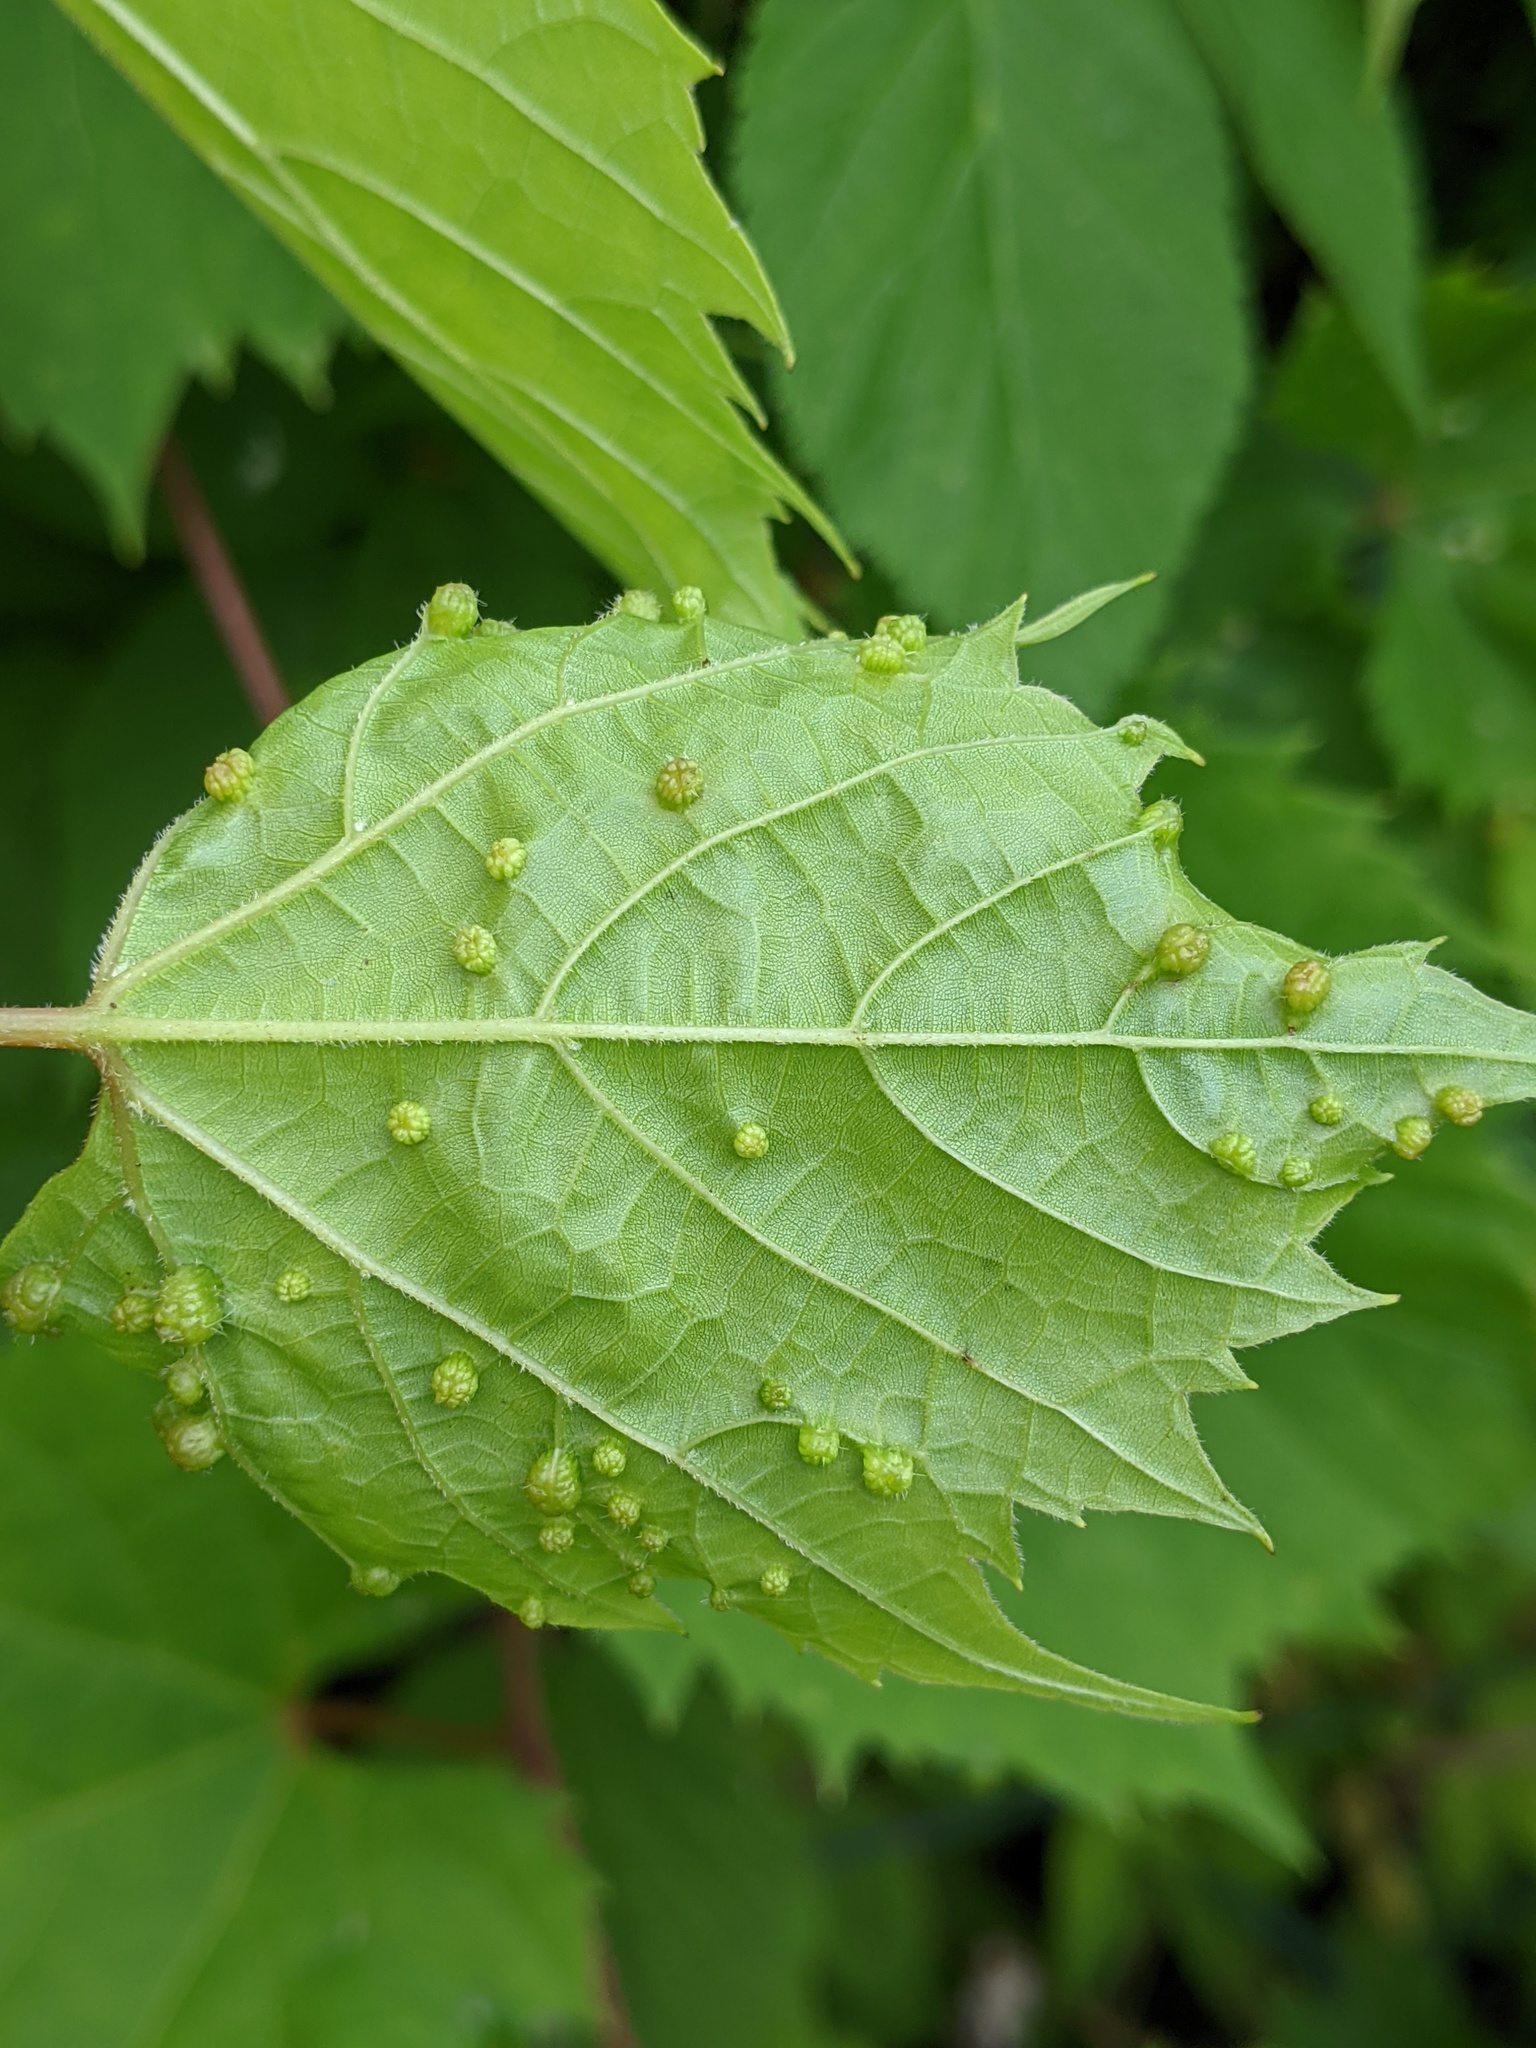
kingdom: Animalia
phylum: Arthropoda
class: Insecta
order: Hemiptera
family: Phylloxeridae
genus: Daktulosphaira
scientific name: Daktulosphaira vitifoliae
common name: Grape phylloxera
